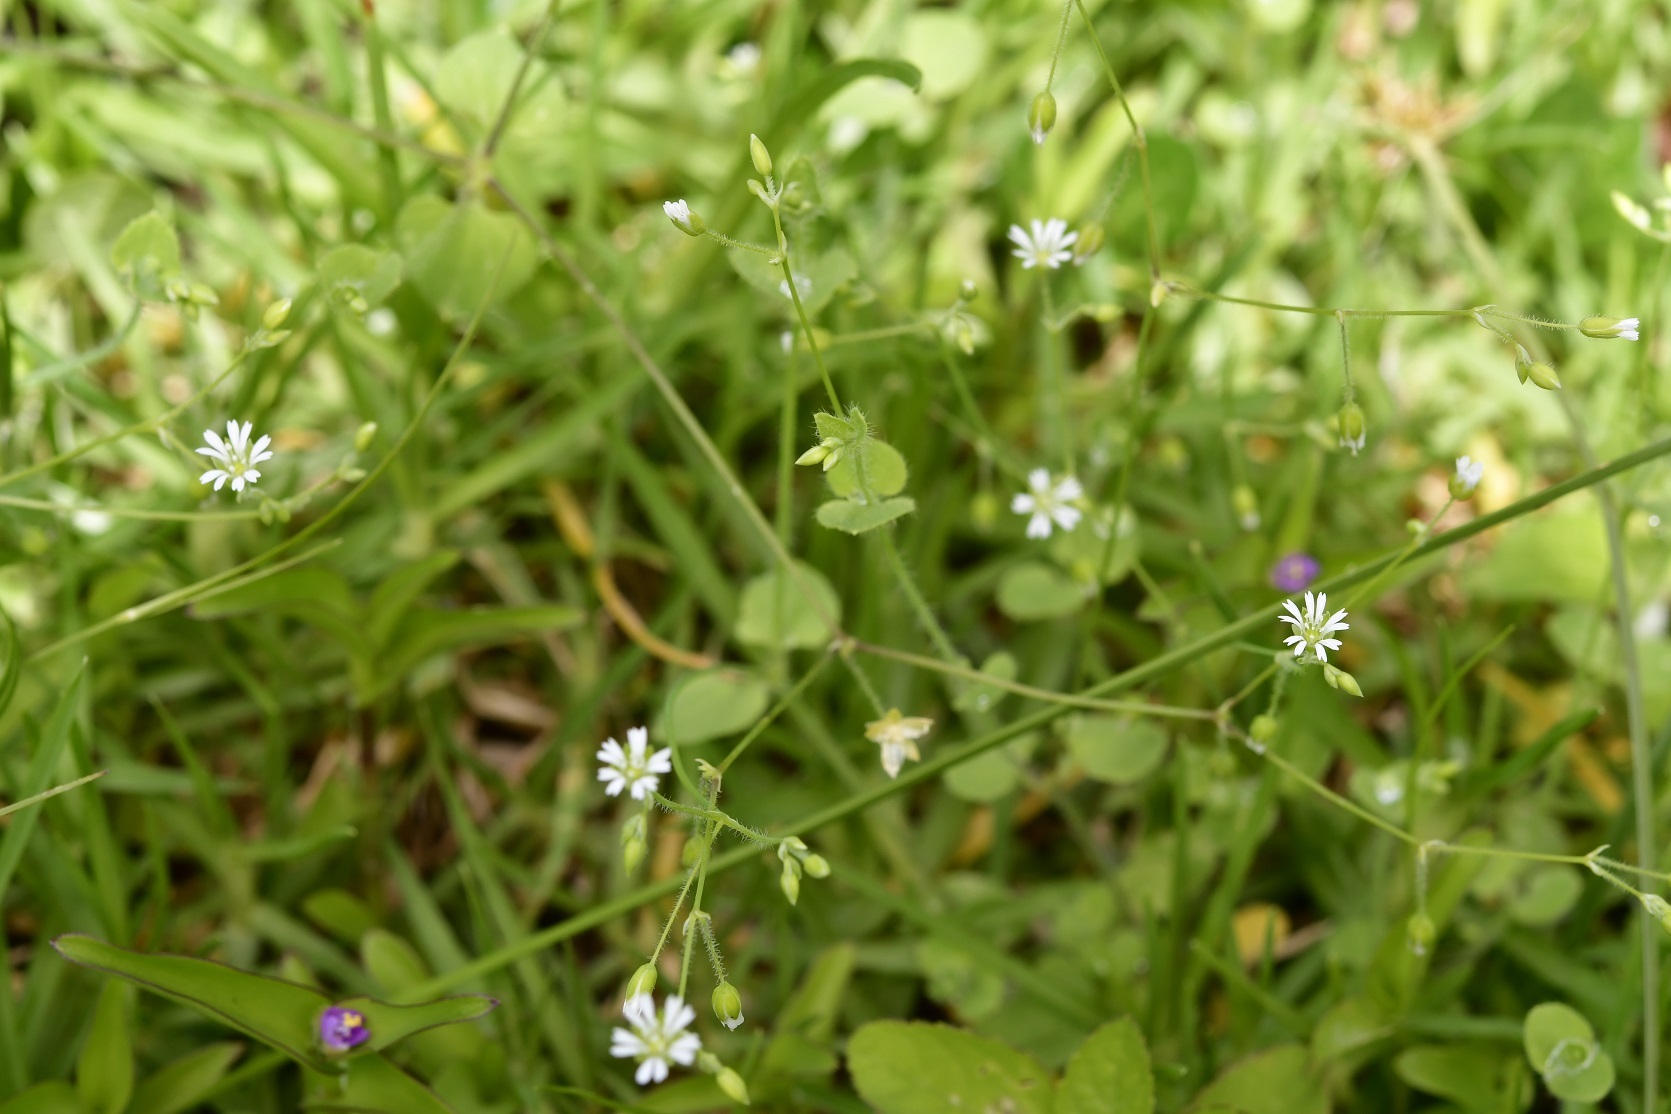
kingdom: Plantae
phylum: Tracheophyta
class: Magnoliopsida
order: Caryophyllales
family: Caryophyllaceae
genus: Drymaria
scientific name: Drymaria villosa
